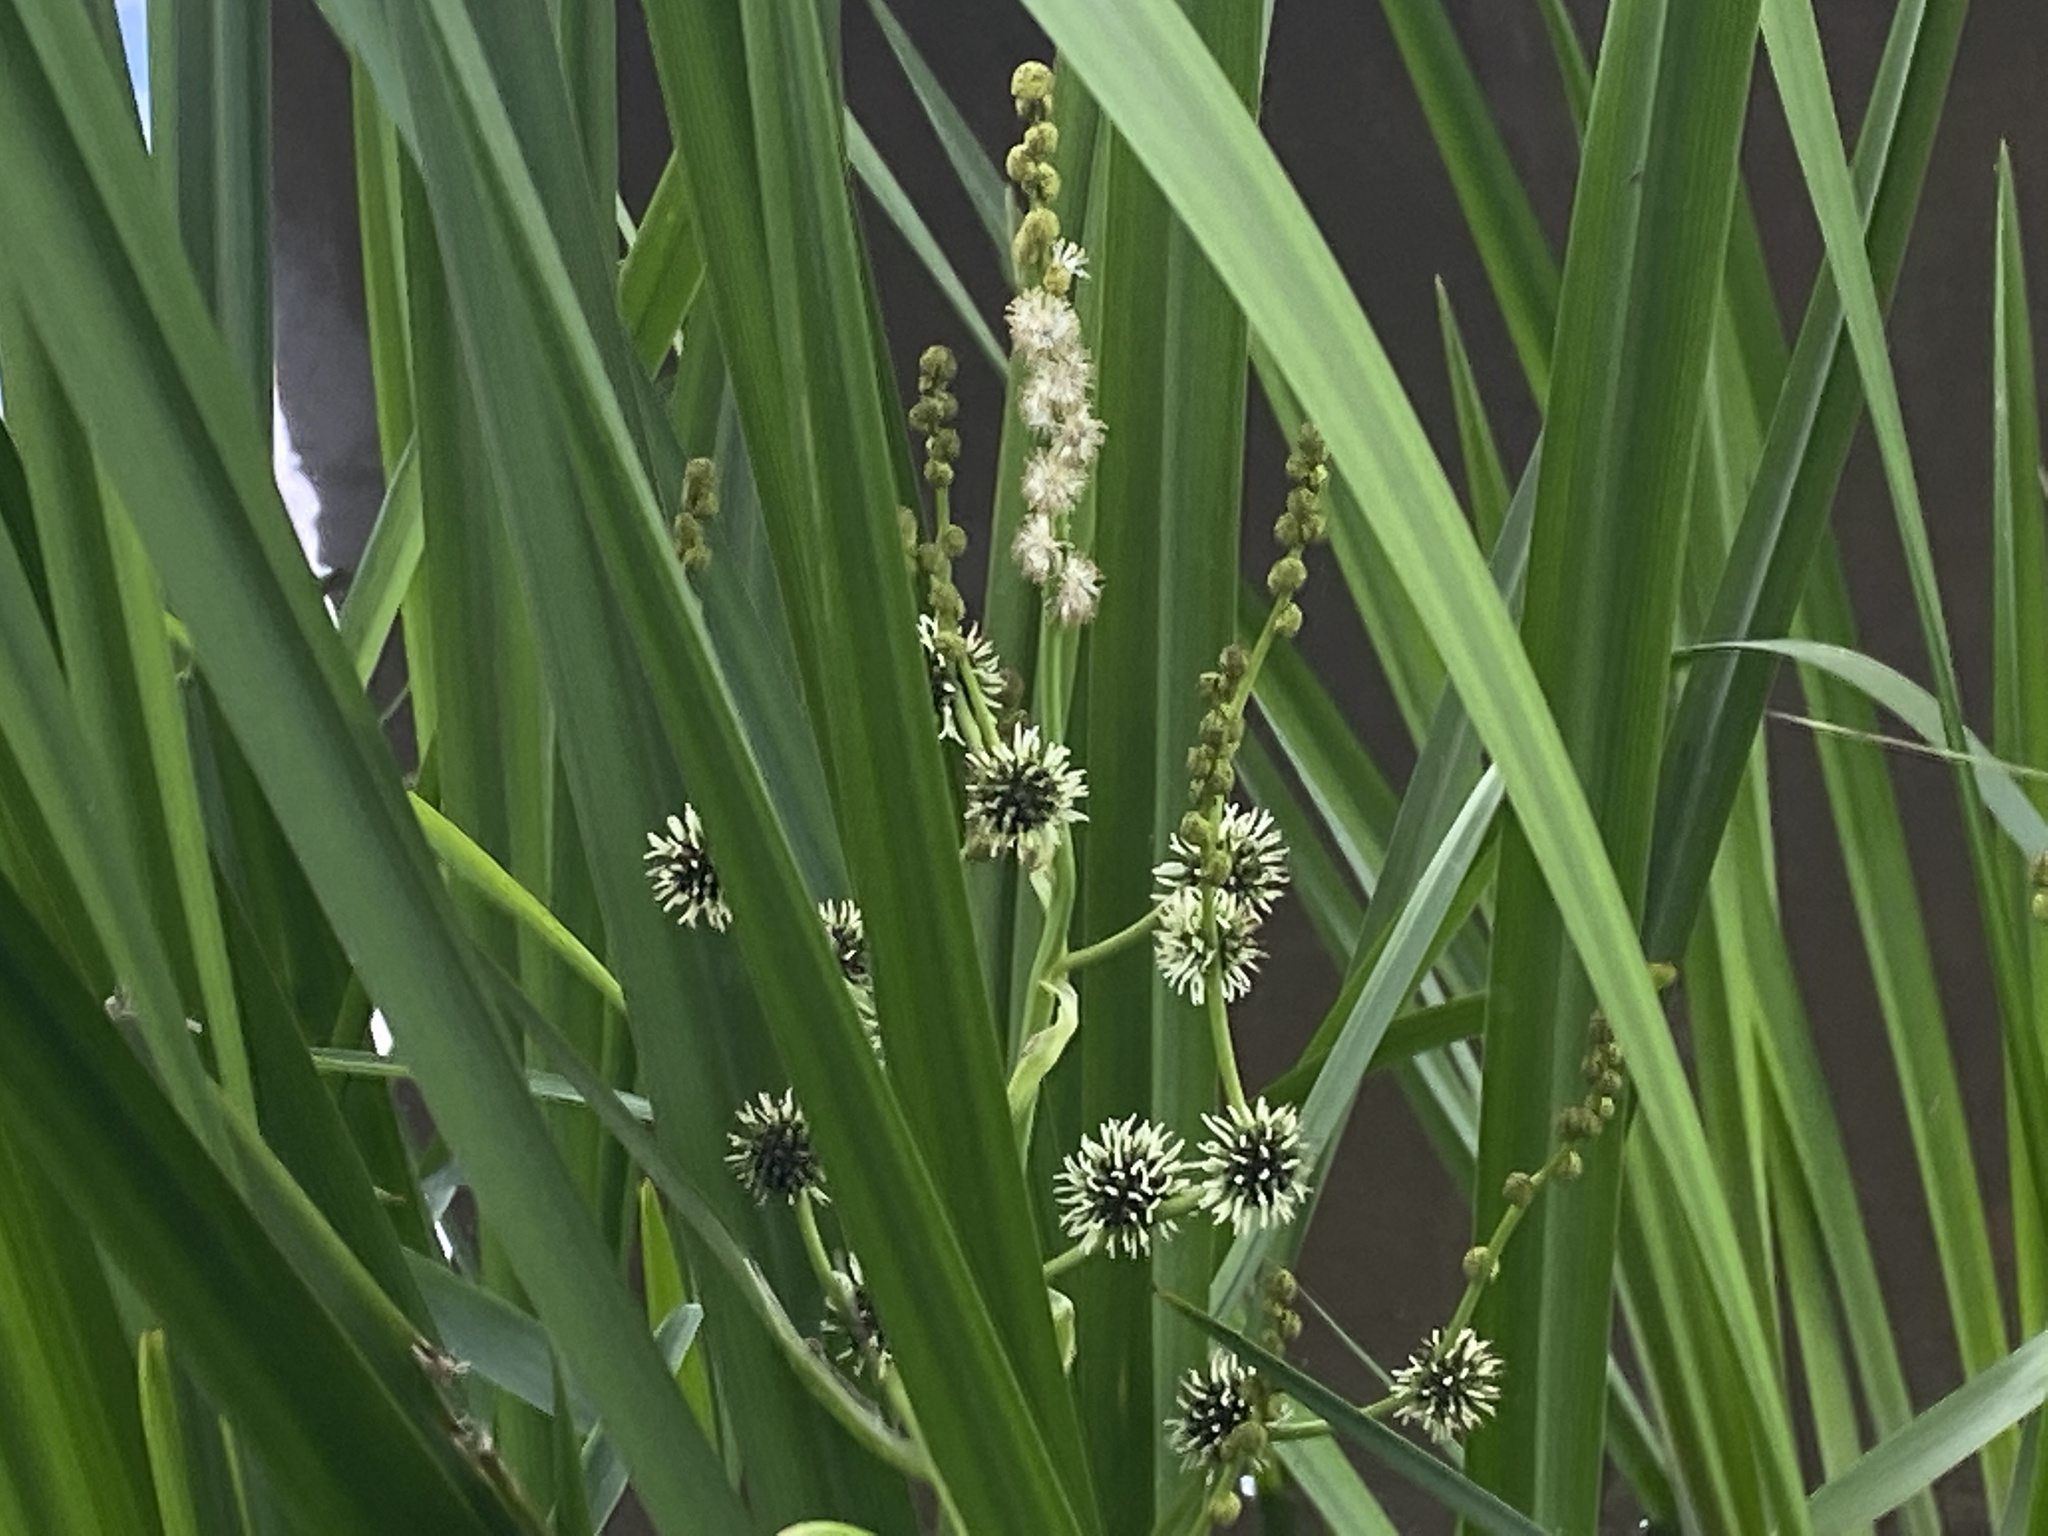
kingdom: Plantae
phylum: Tracheophyta
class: Liliopsida
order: Poales
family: Typhaceae
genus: Sparganium
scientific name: Sparganium erectum
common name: Branched bur-reed
